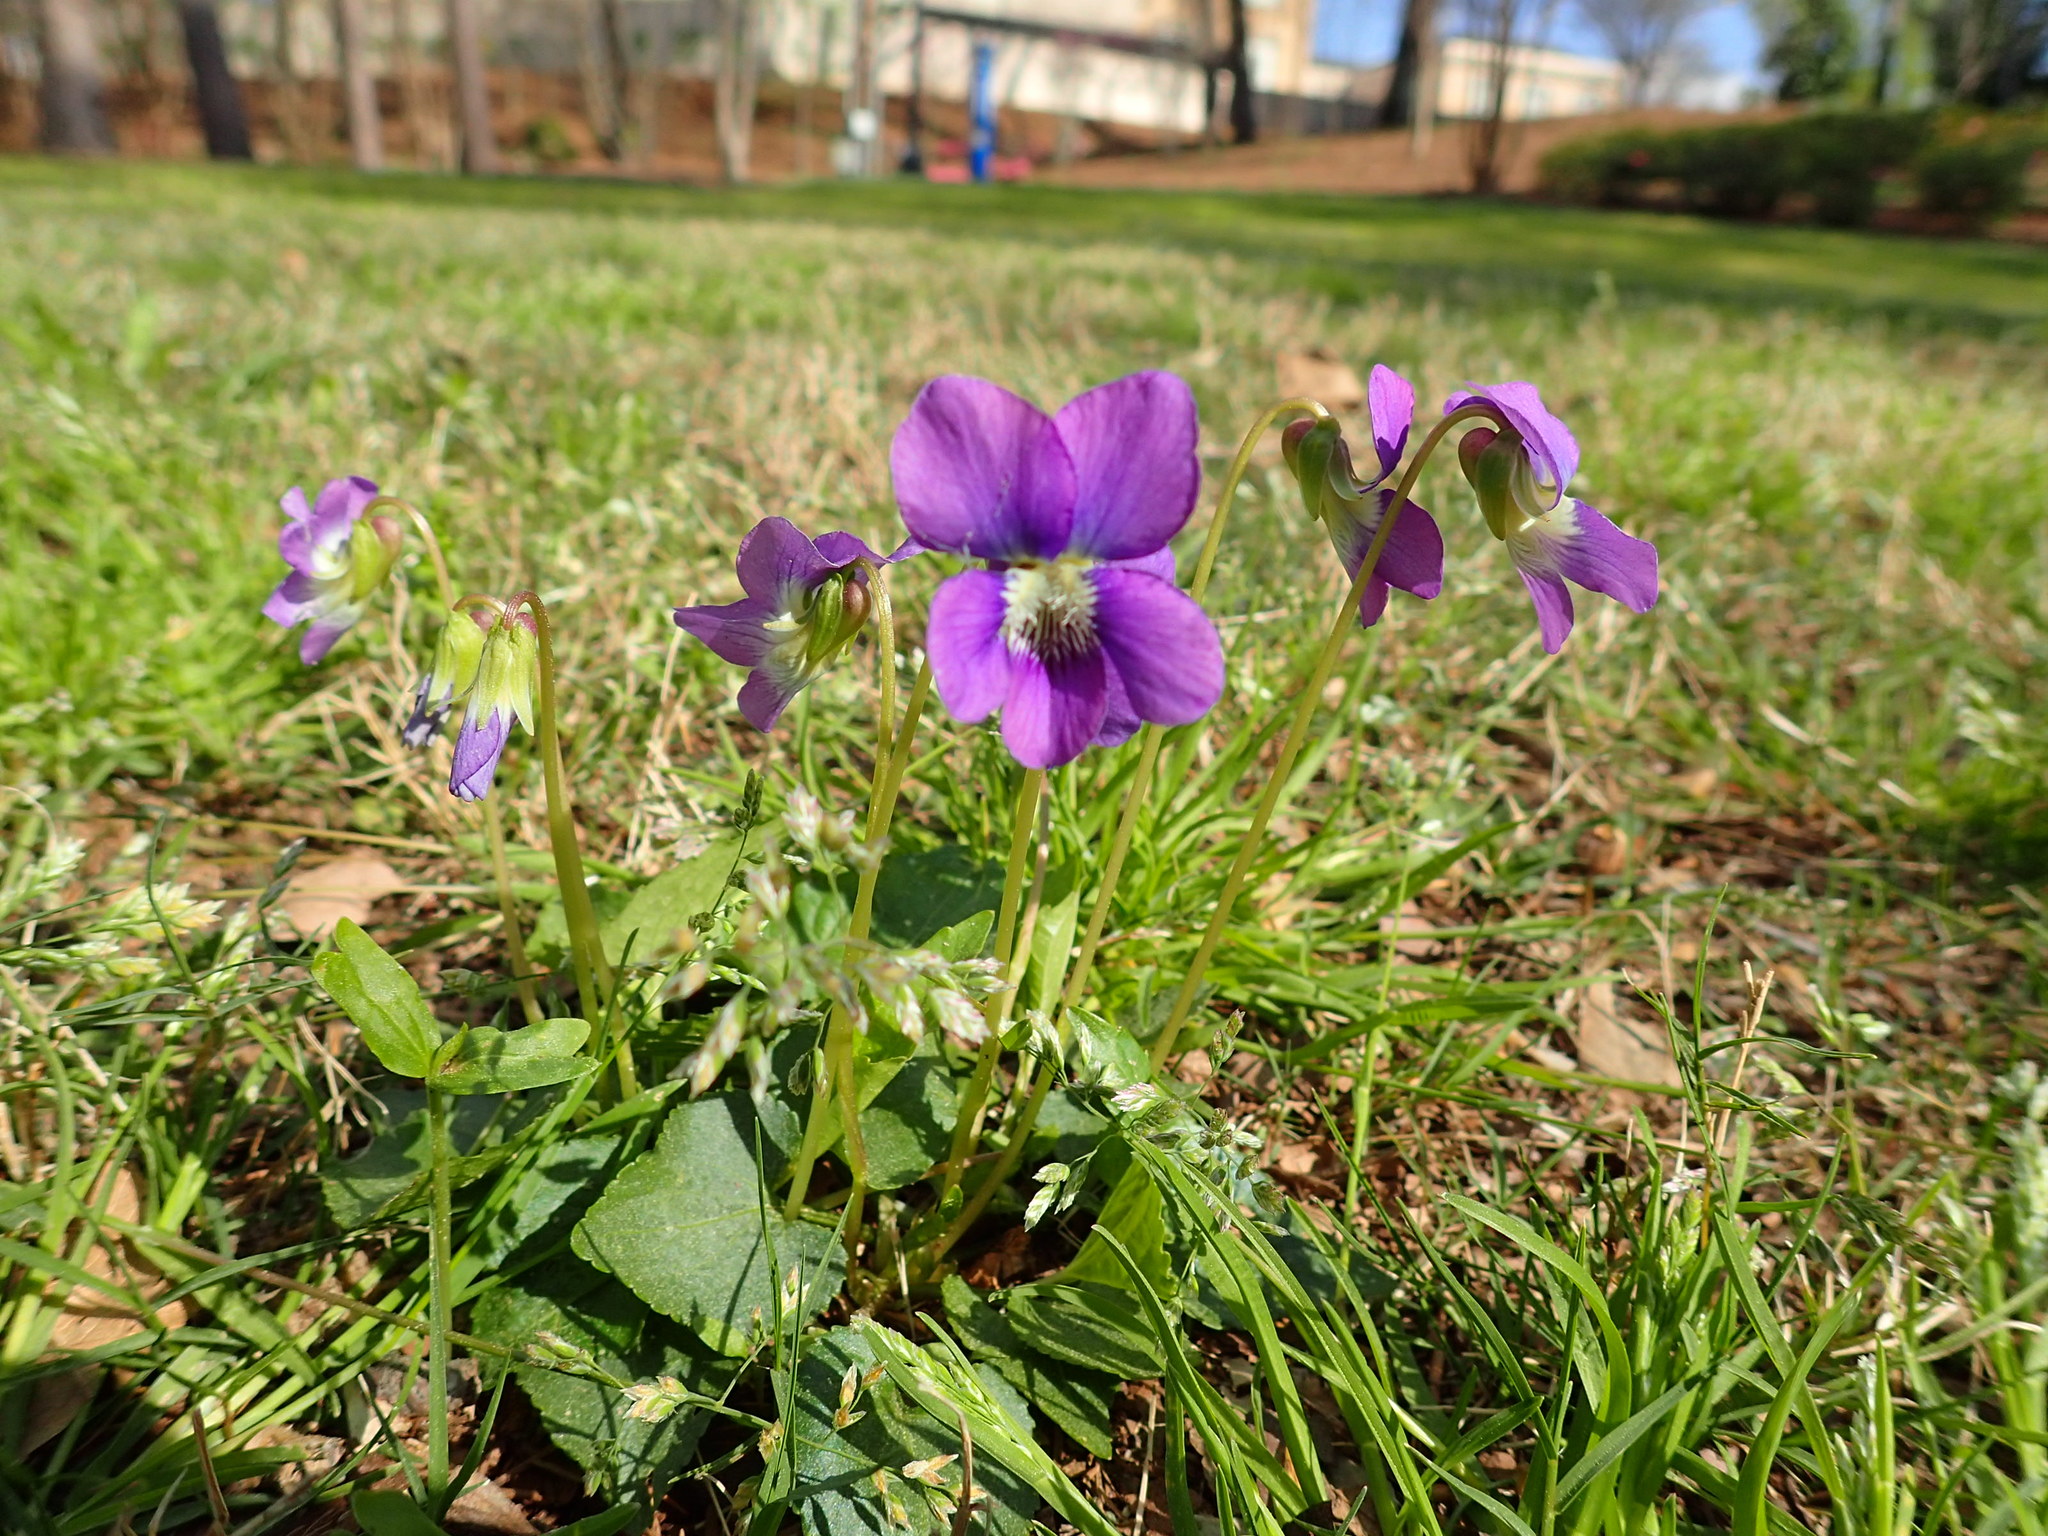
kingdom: Plantae
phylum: Tracheophyta
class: Magnoliopsida
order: Malpighiales
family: Violaceae
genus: Viola
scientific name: Viola sororia
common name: Dooryard violet
